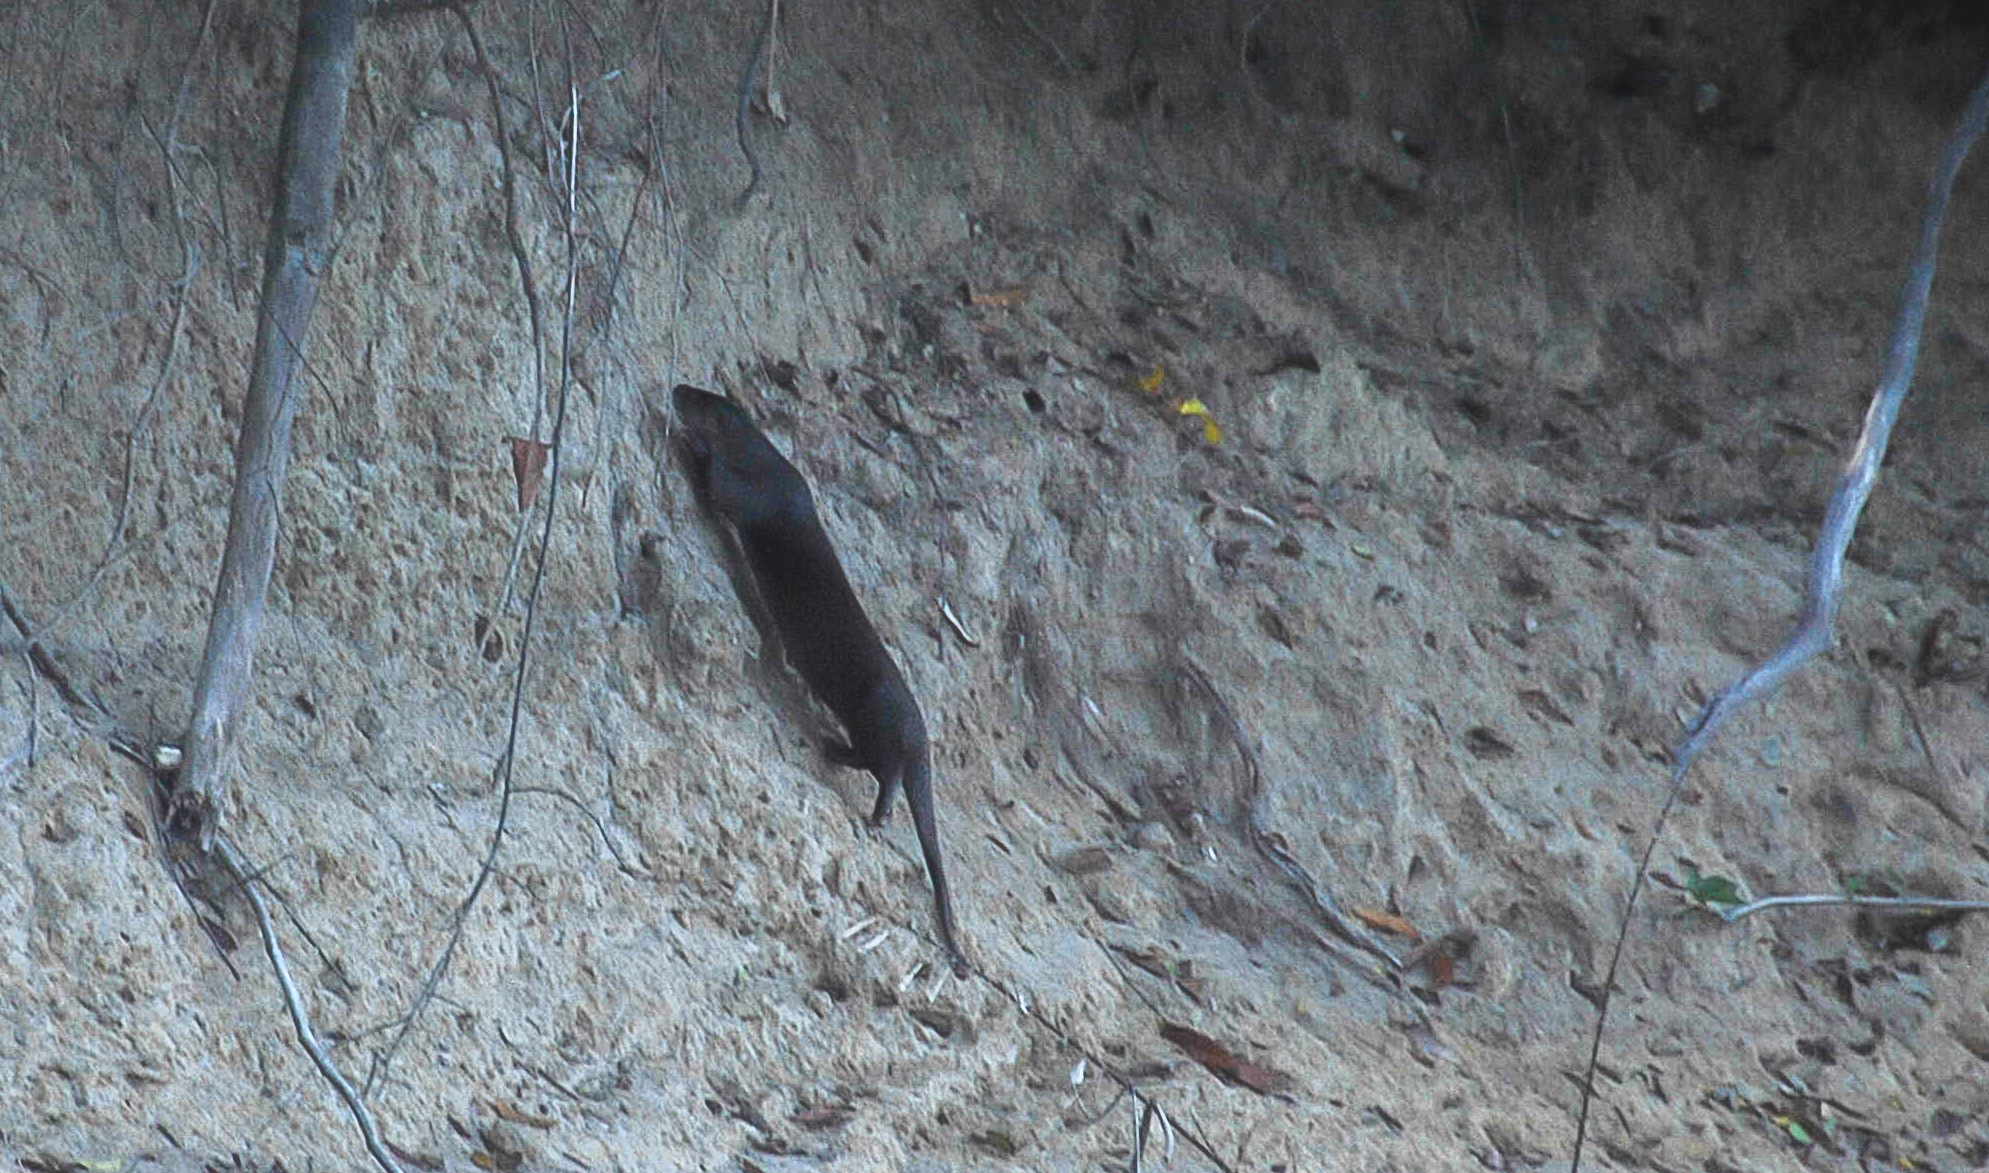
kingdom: Animalia
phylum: Chordata
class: Mammalia
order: Carnivora
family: Mustelidae
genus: Lontra
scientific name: Lontra longicaudis
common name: Neotropical otter
